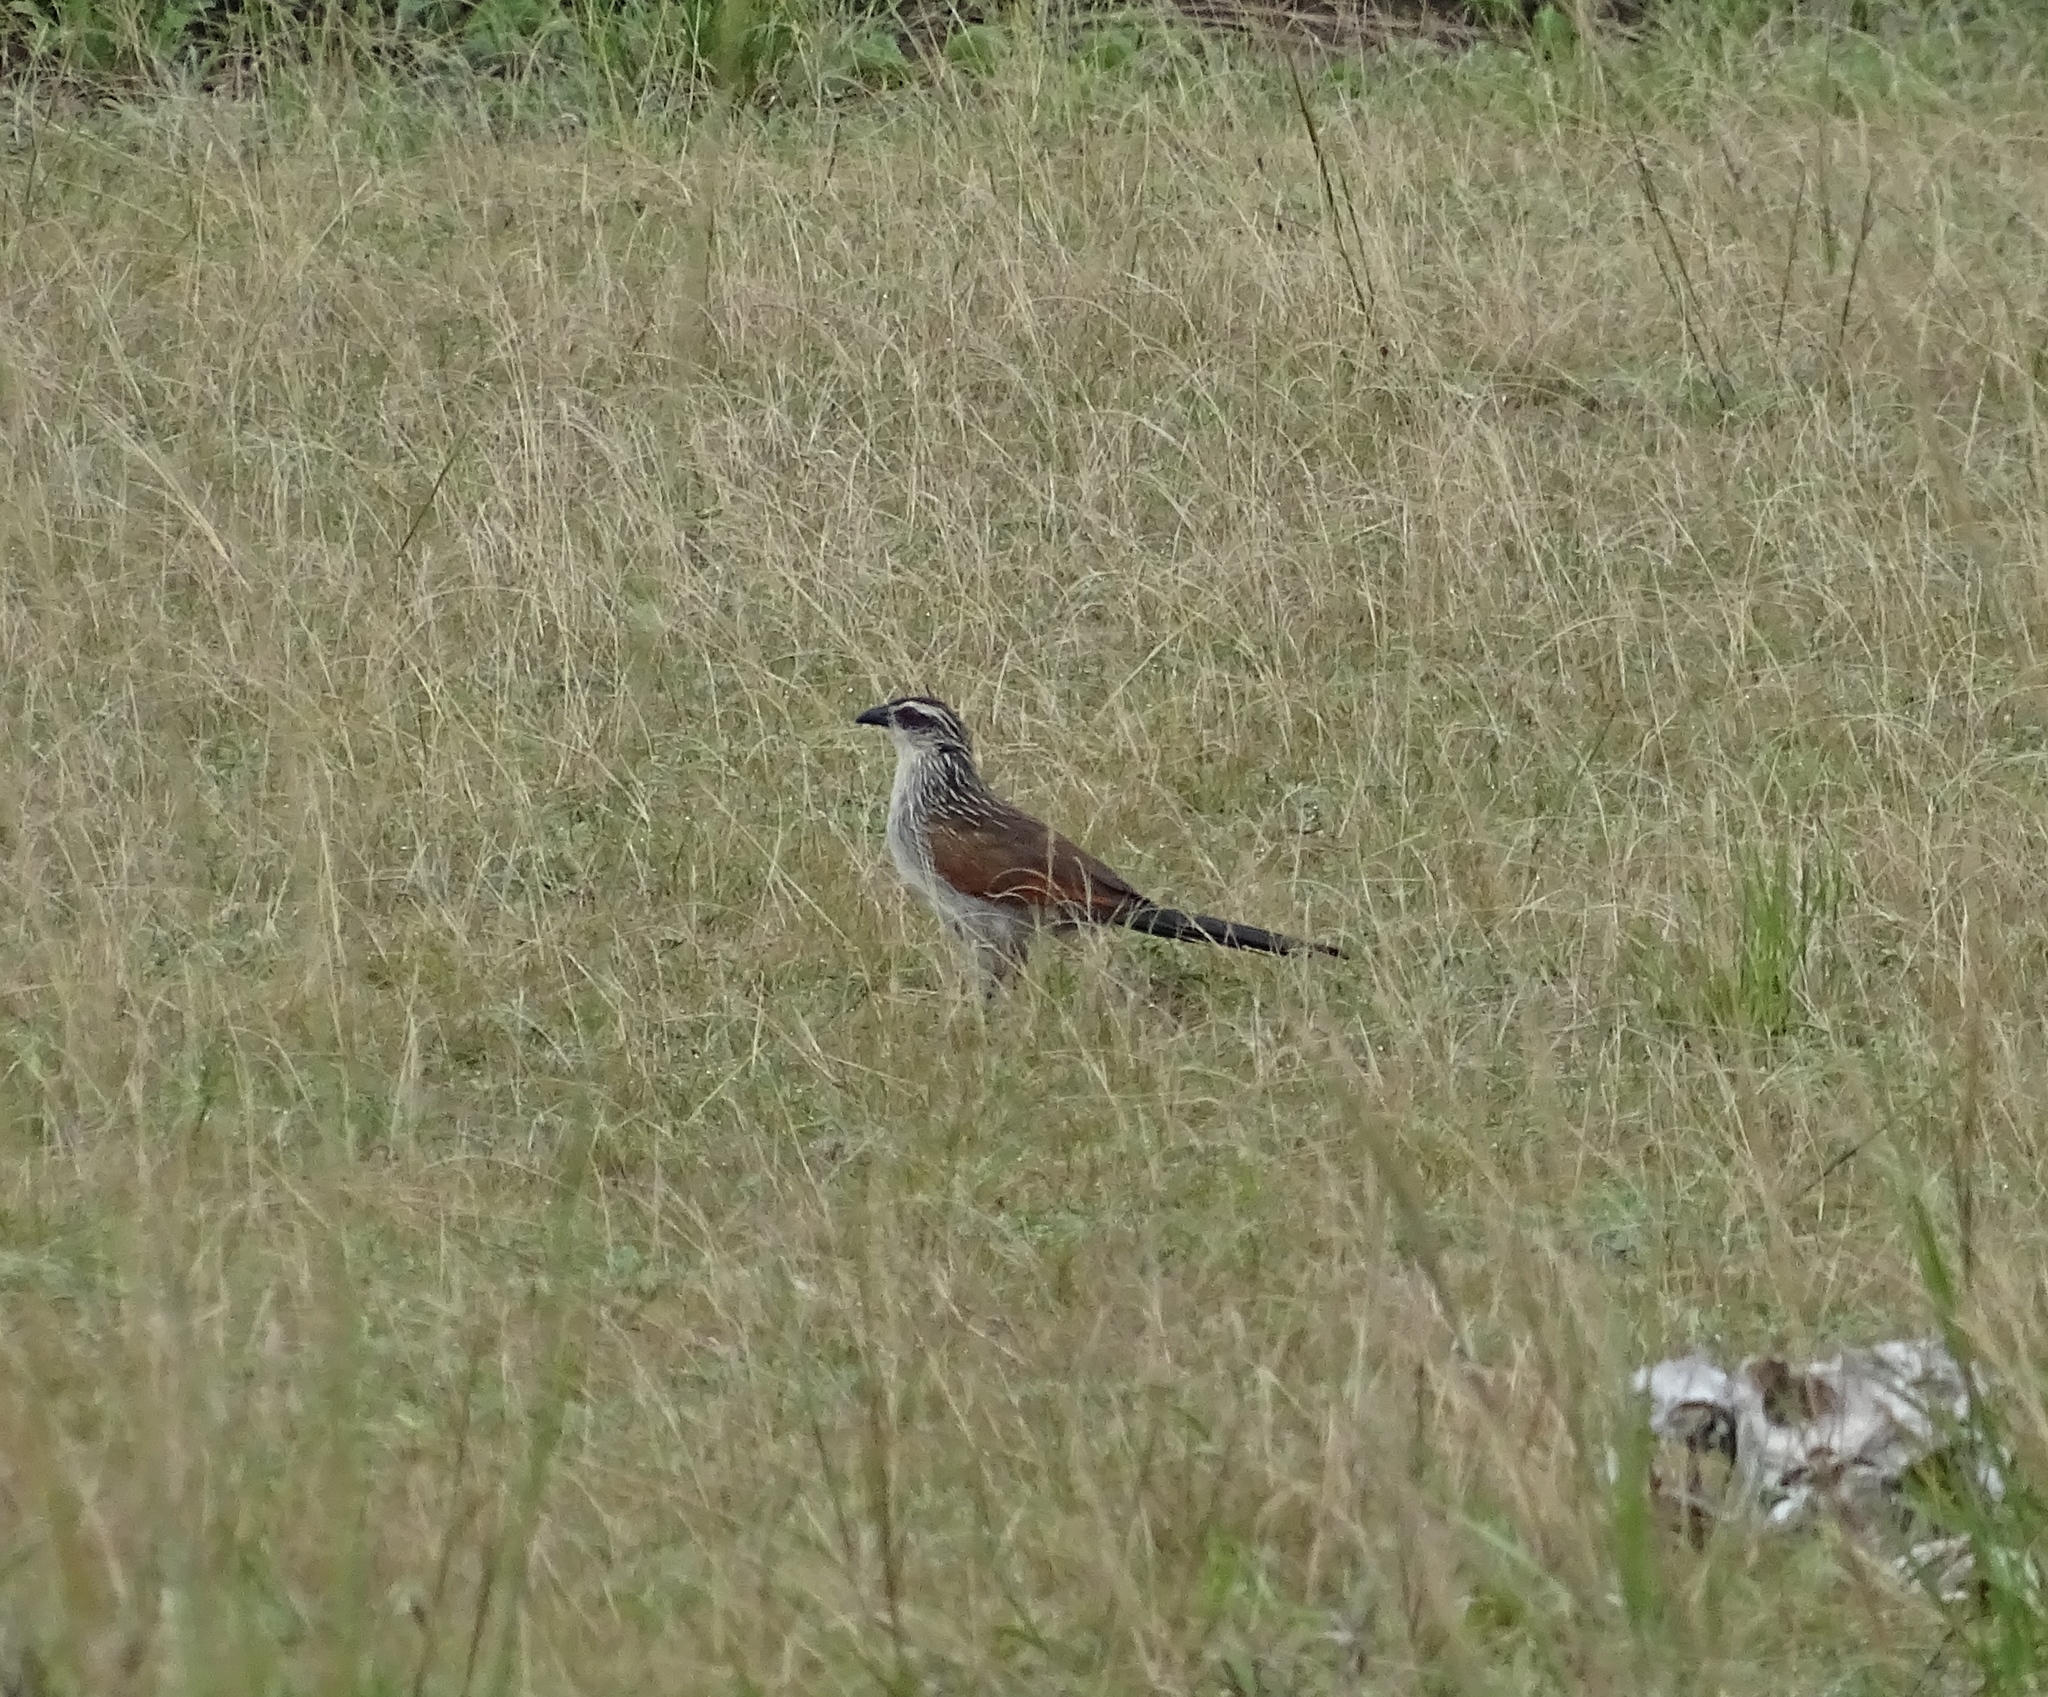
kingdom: Animalia
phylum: Chordata
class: Aves
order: Cuculiformes
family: Cuculidae
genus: Centropus
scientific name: Centropus superciliosus
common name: White-browed coucal
